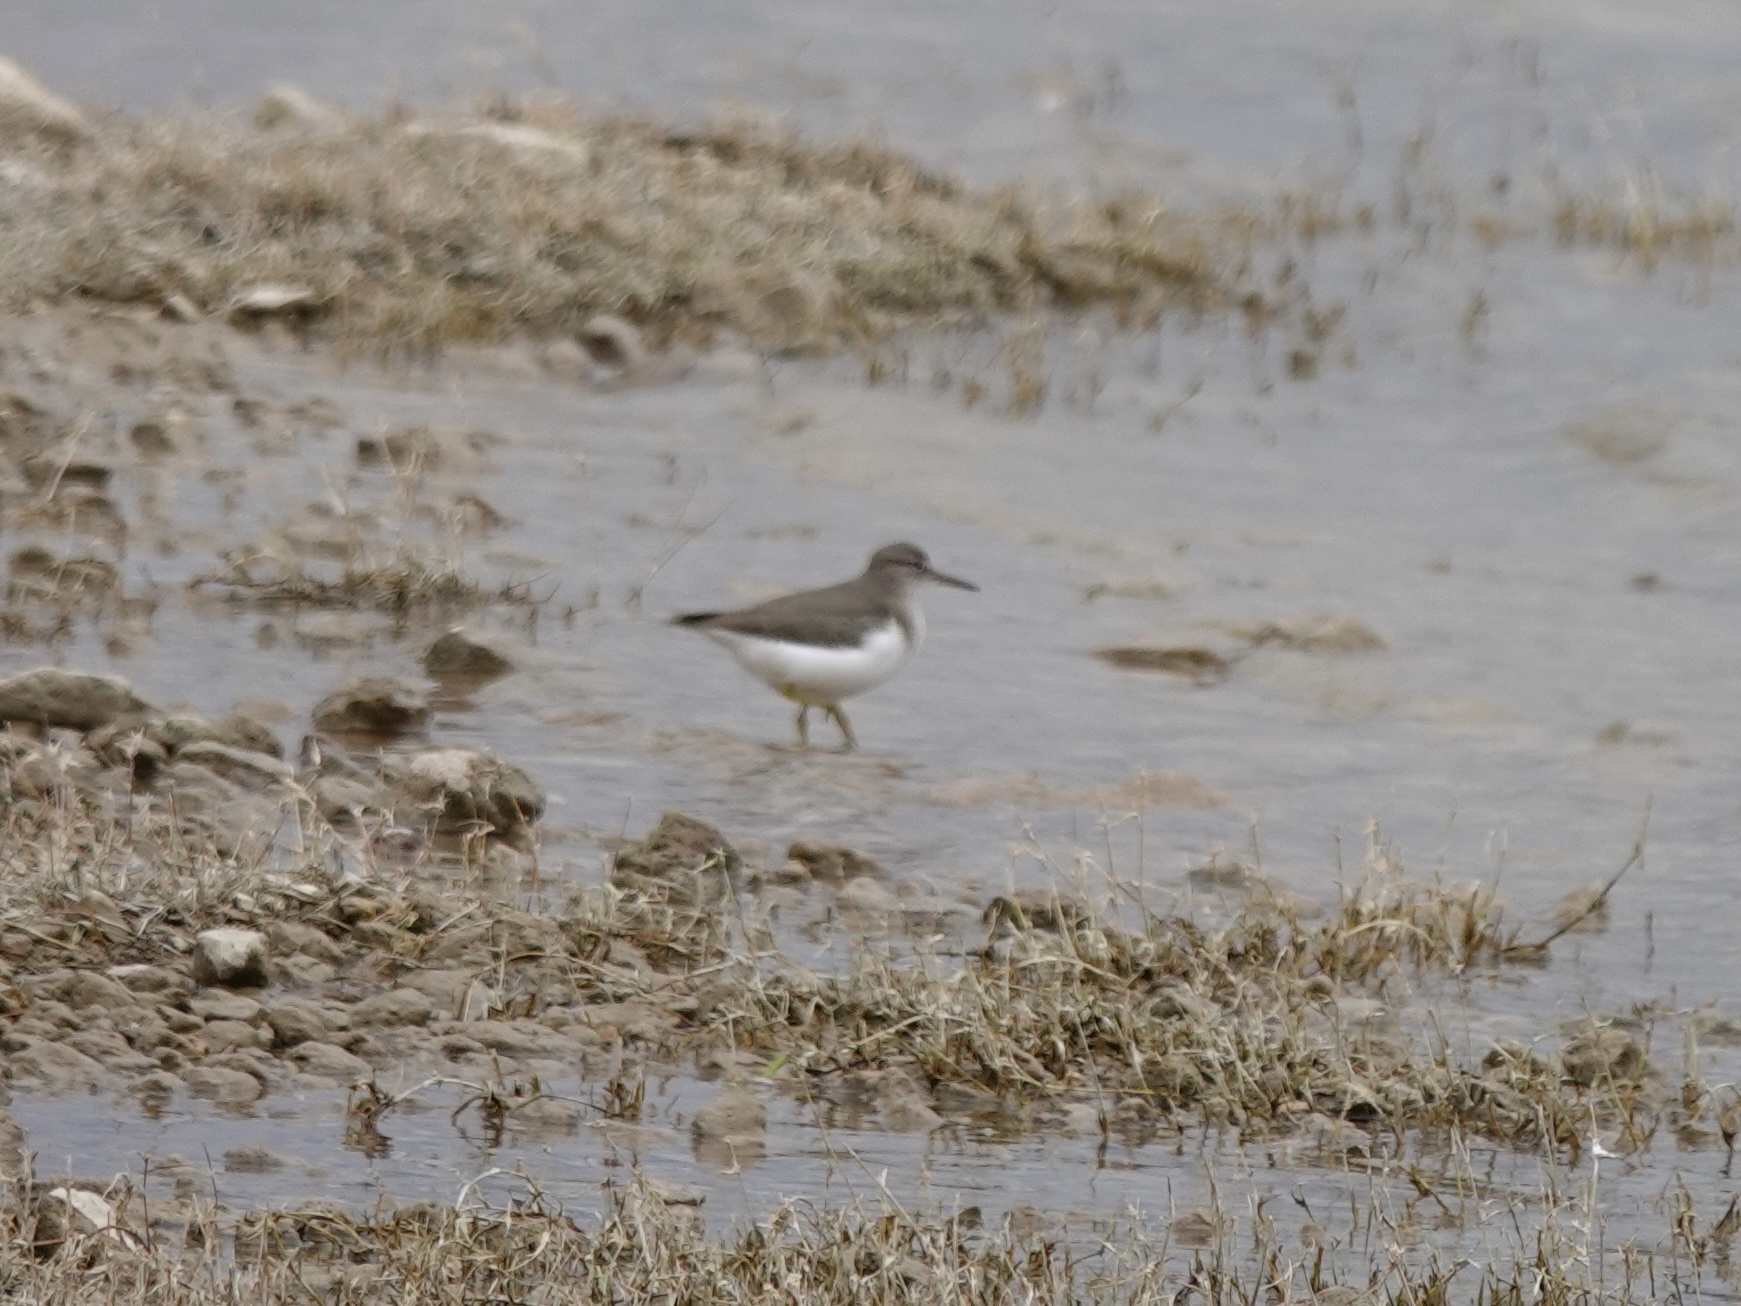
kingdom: Animalia
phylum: Chordata
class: Aves
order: Charadriiformes
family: Scolopacidae
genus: Actitis
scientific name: Actitis macularius
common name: Spotted sandpiper
